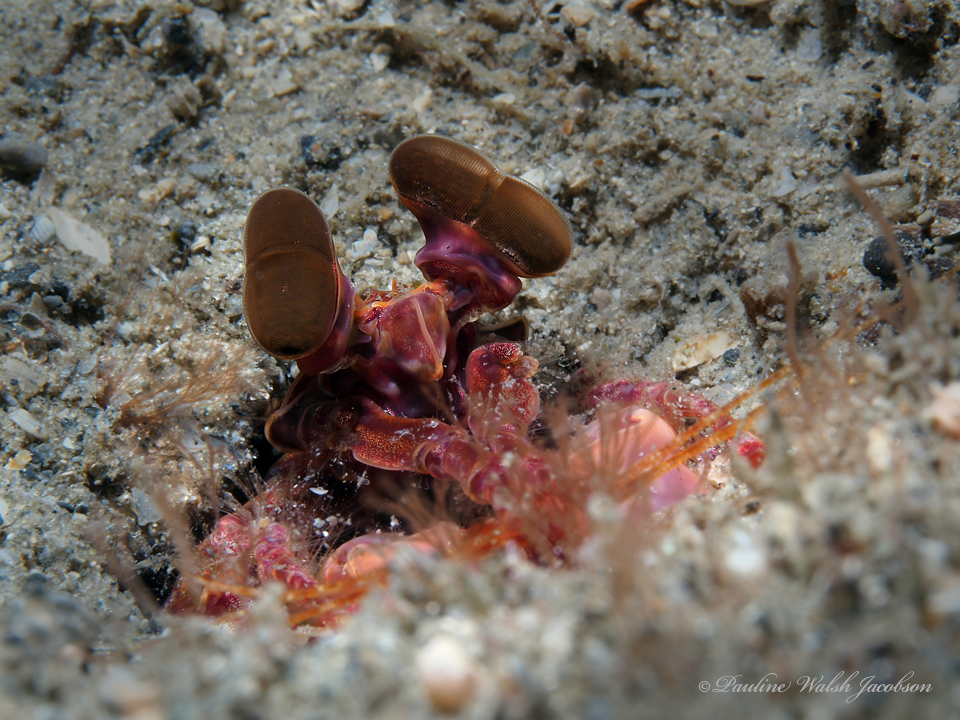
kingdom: Animalia
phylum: Arthropoda
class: Malacostraca
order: Stomatopoda
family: Lysiosquillidae
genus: Lysiosquilla
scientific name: Lysiosquilla glabriuscula
